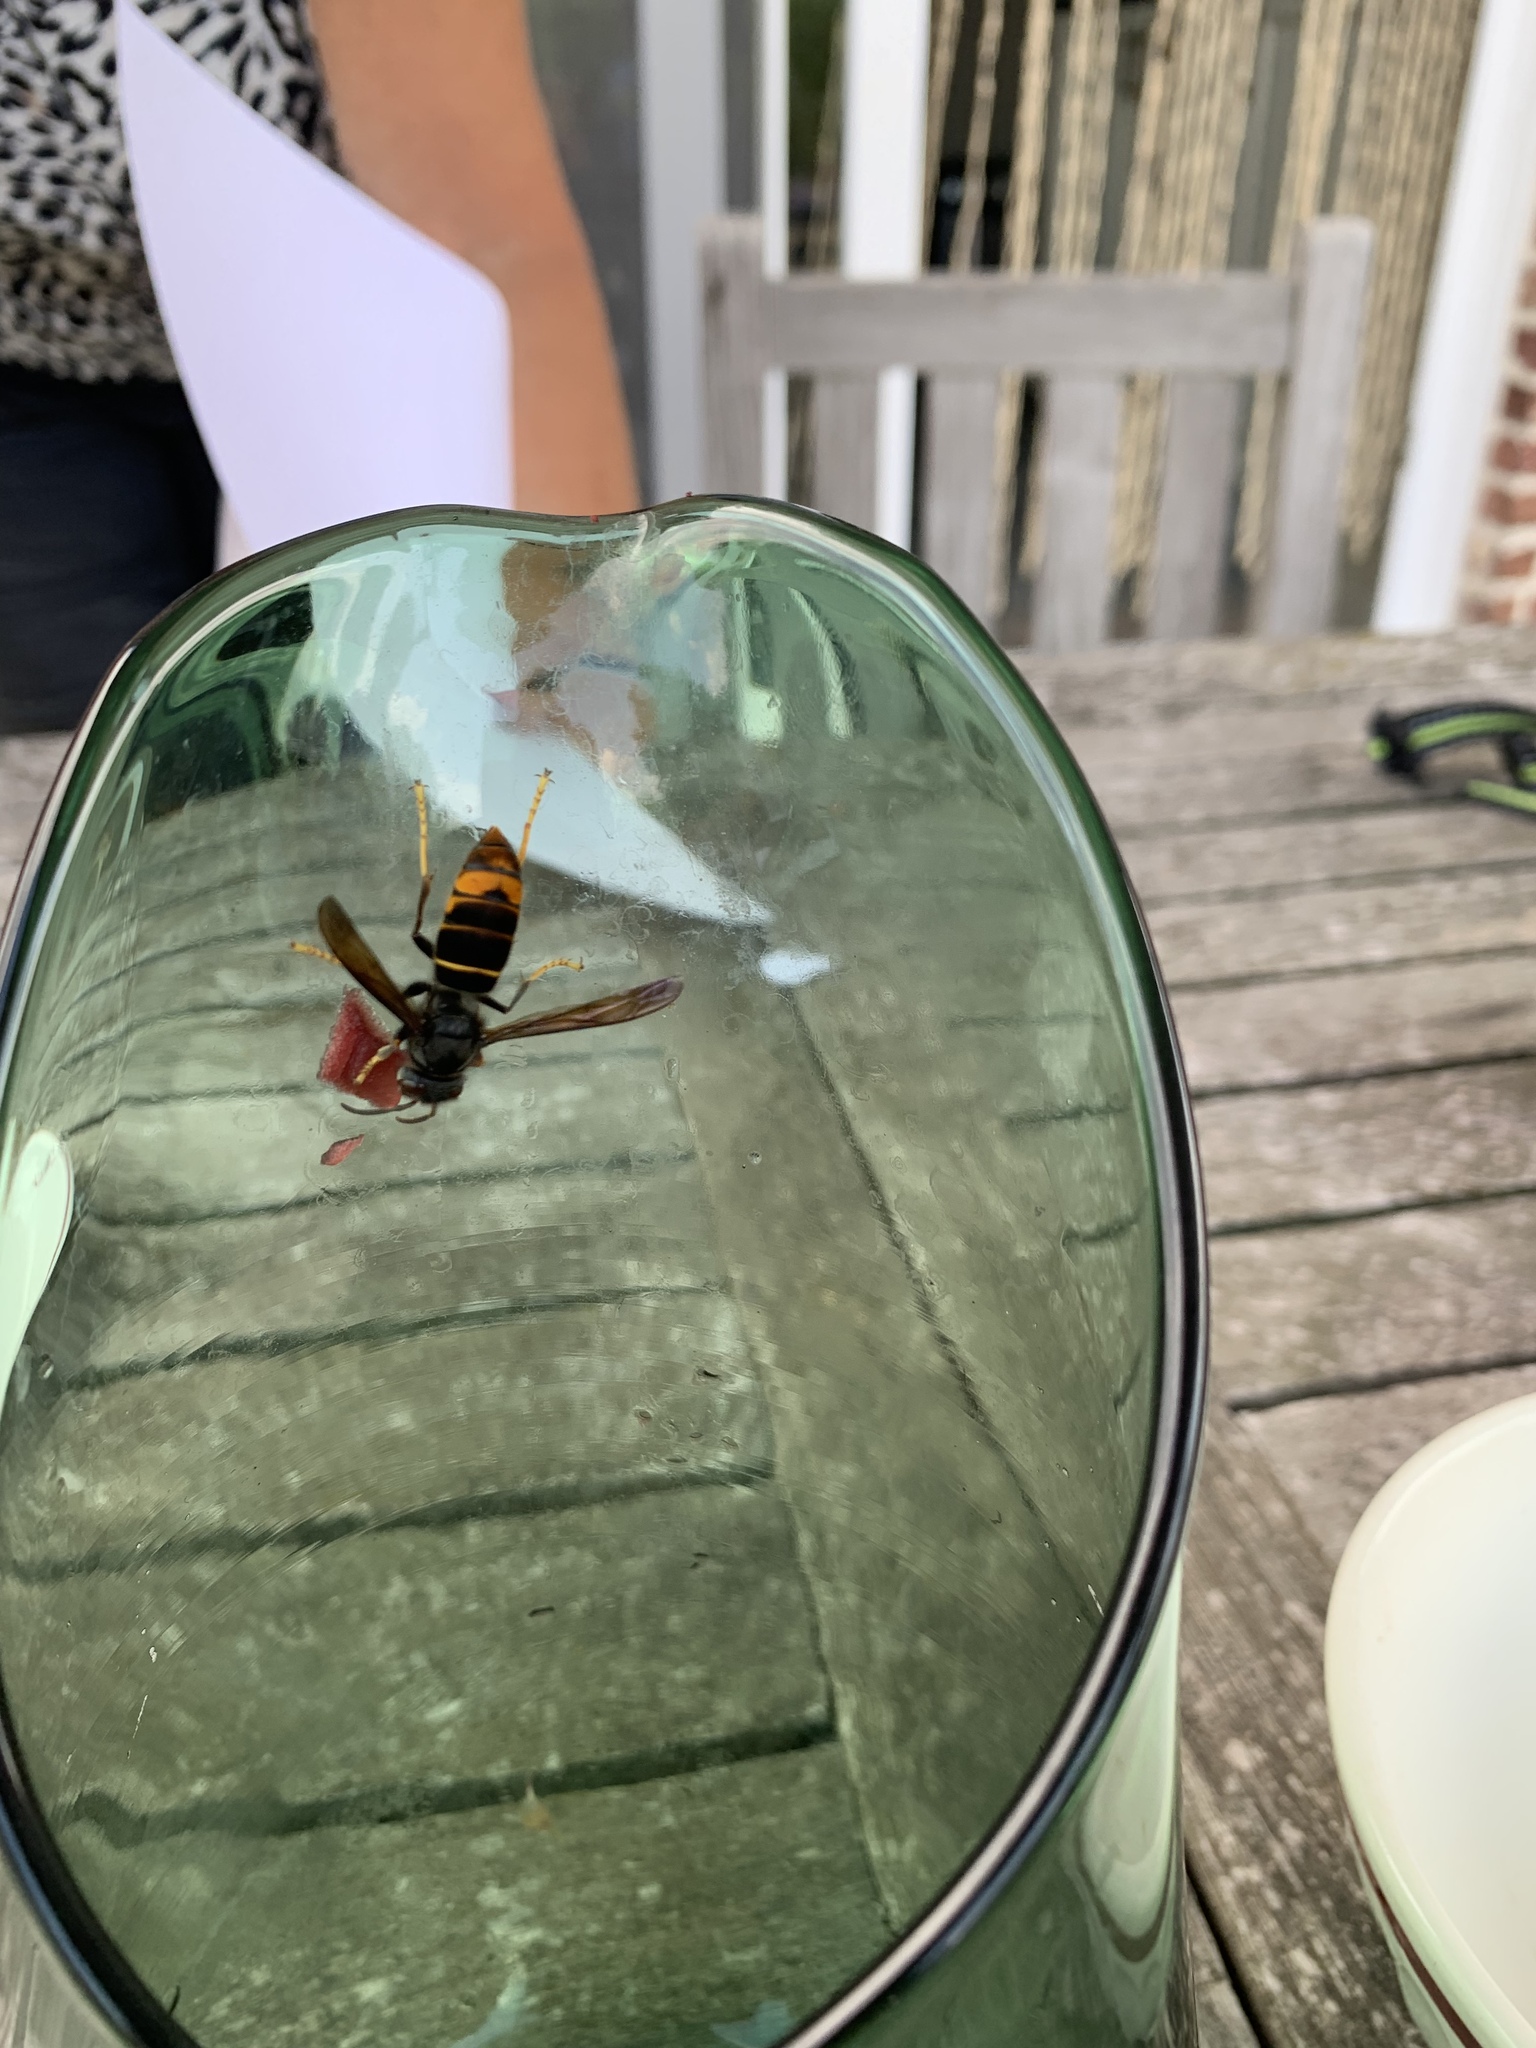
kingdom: Animalia
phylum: Arthropoda
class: Insecta
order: Hymenoptera
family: Vespidae
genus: Vespa
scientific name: Vespa velutina
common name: Asian hornet
